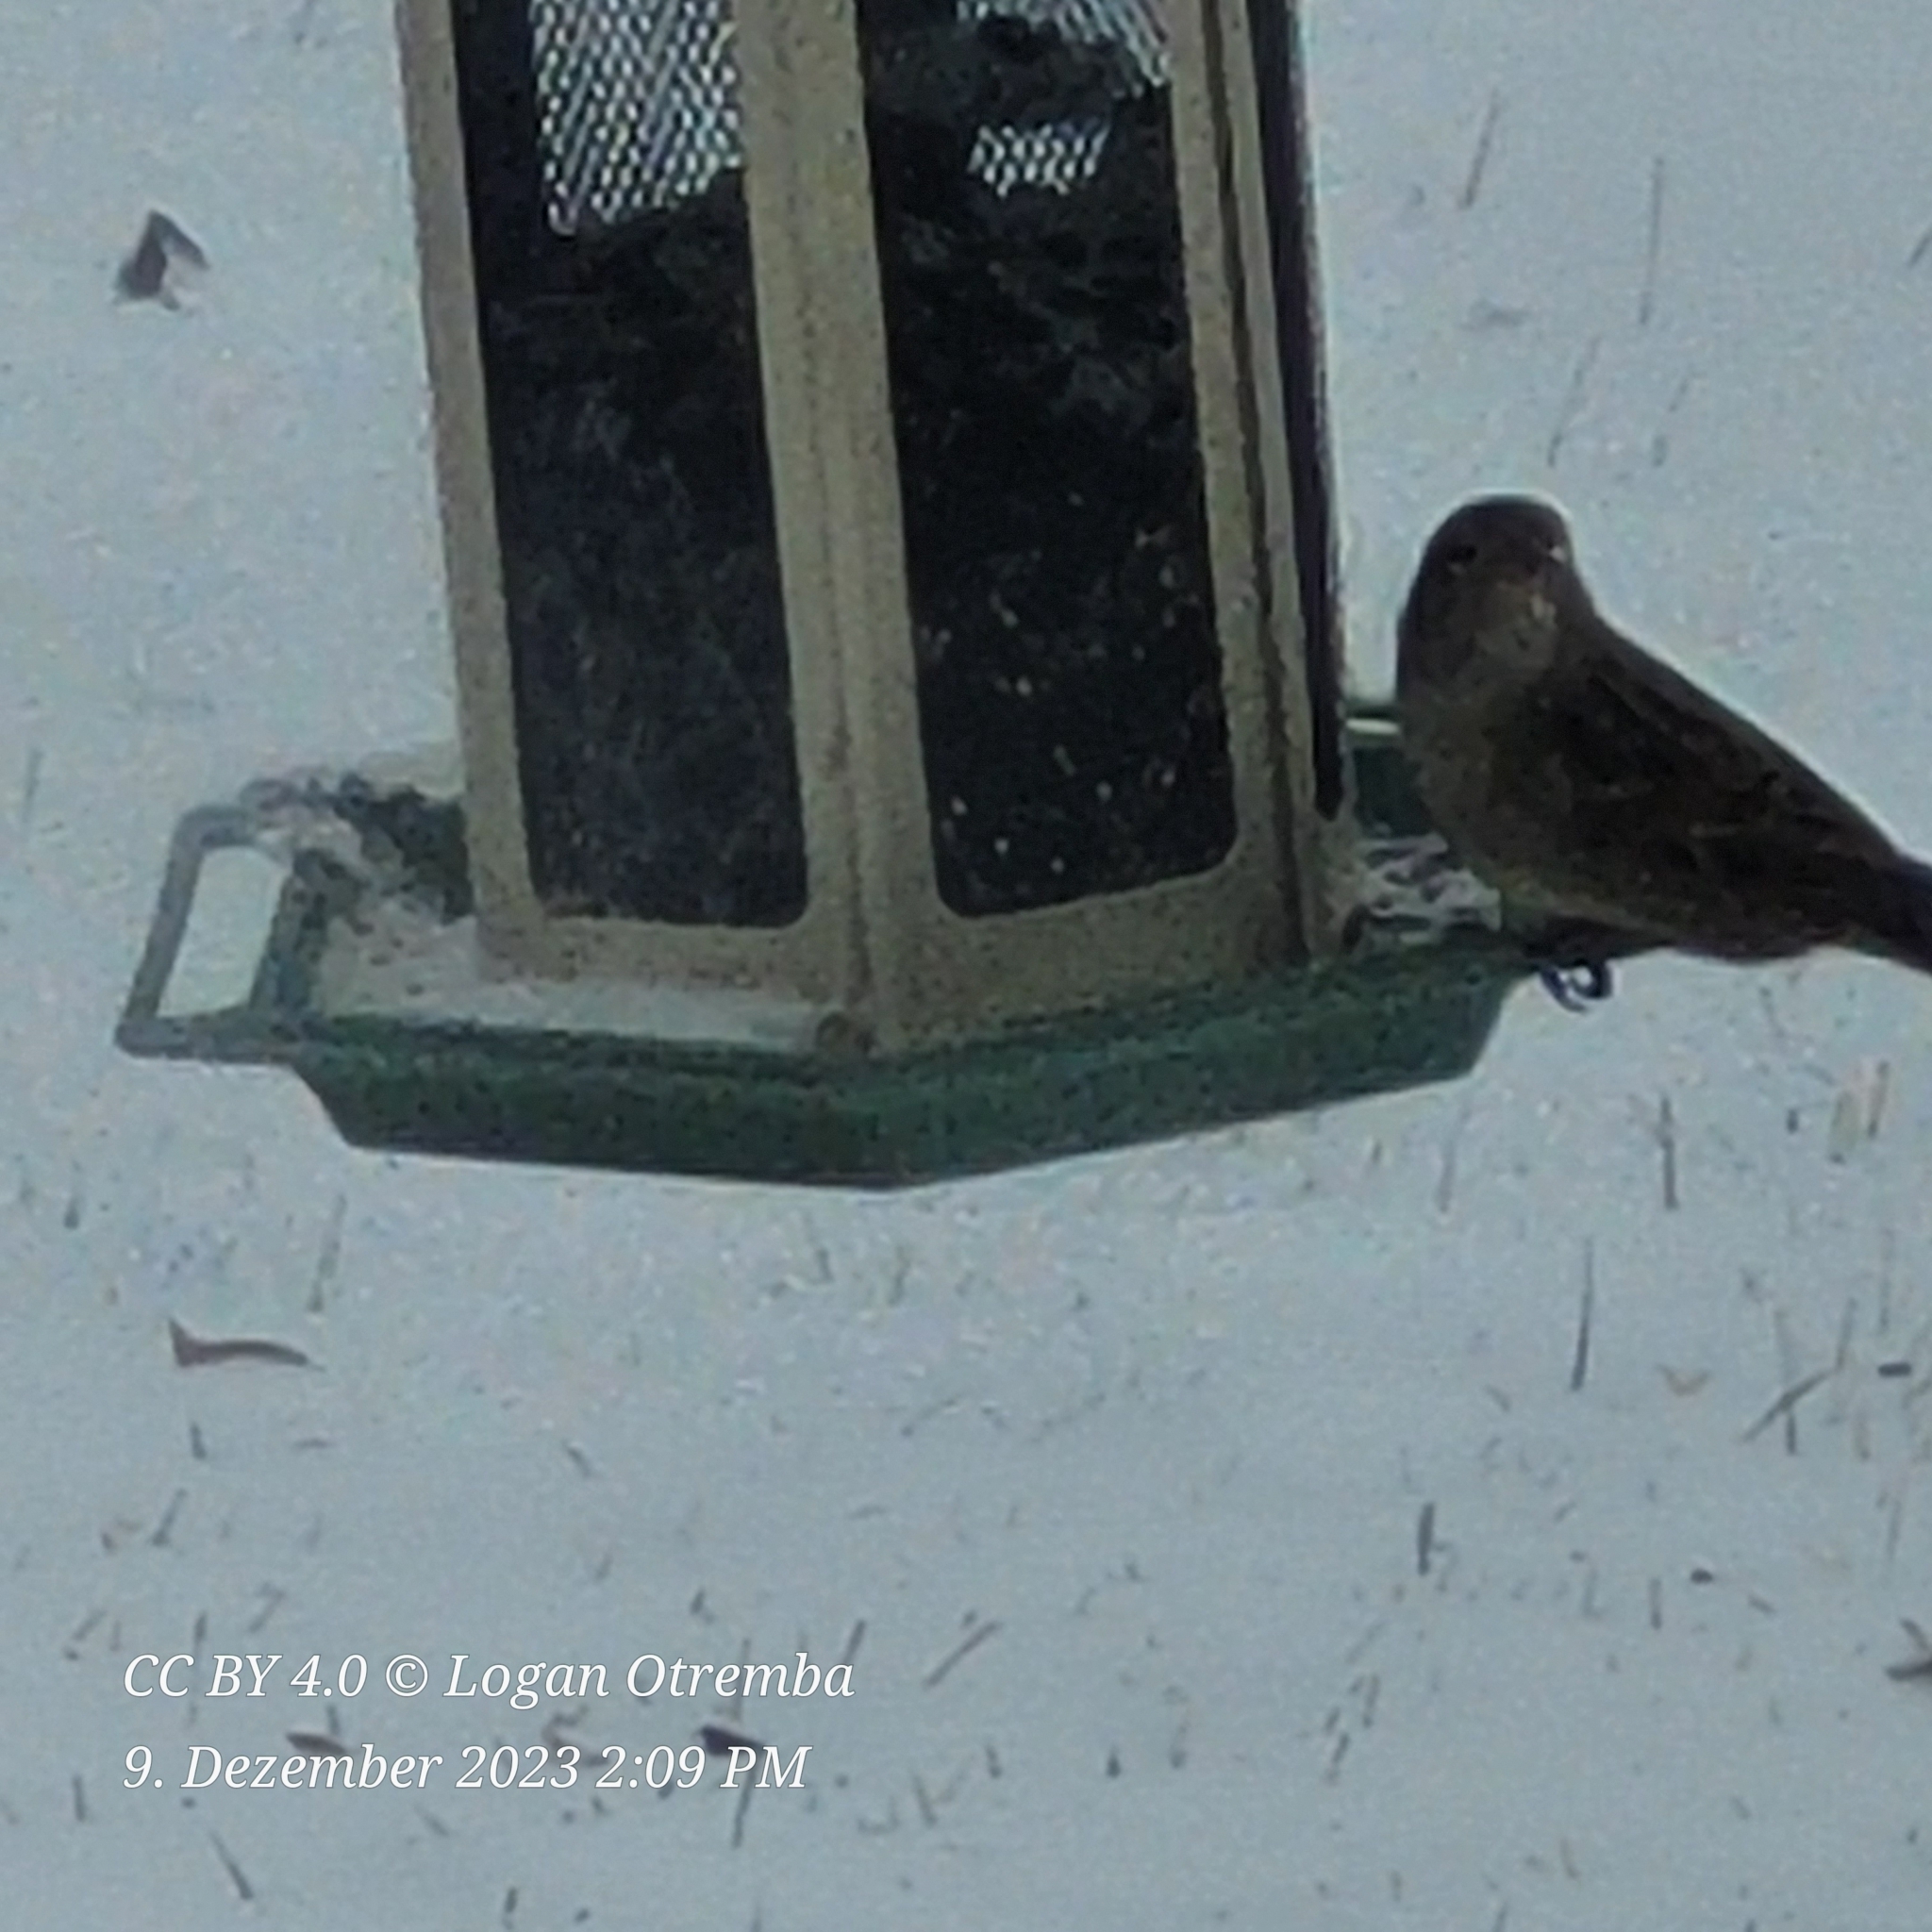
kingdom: Animalia
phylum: Chordata
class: Aves
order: Passeriformes
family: Passeridae
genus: Passer
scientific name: Passer domesticus
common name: House sparrow
